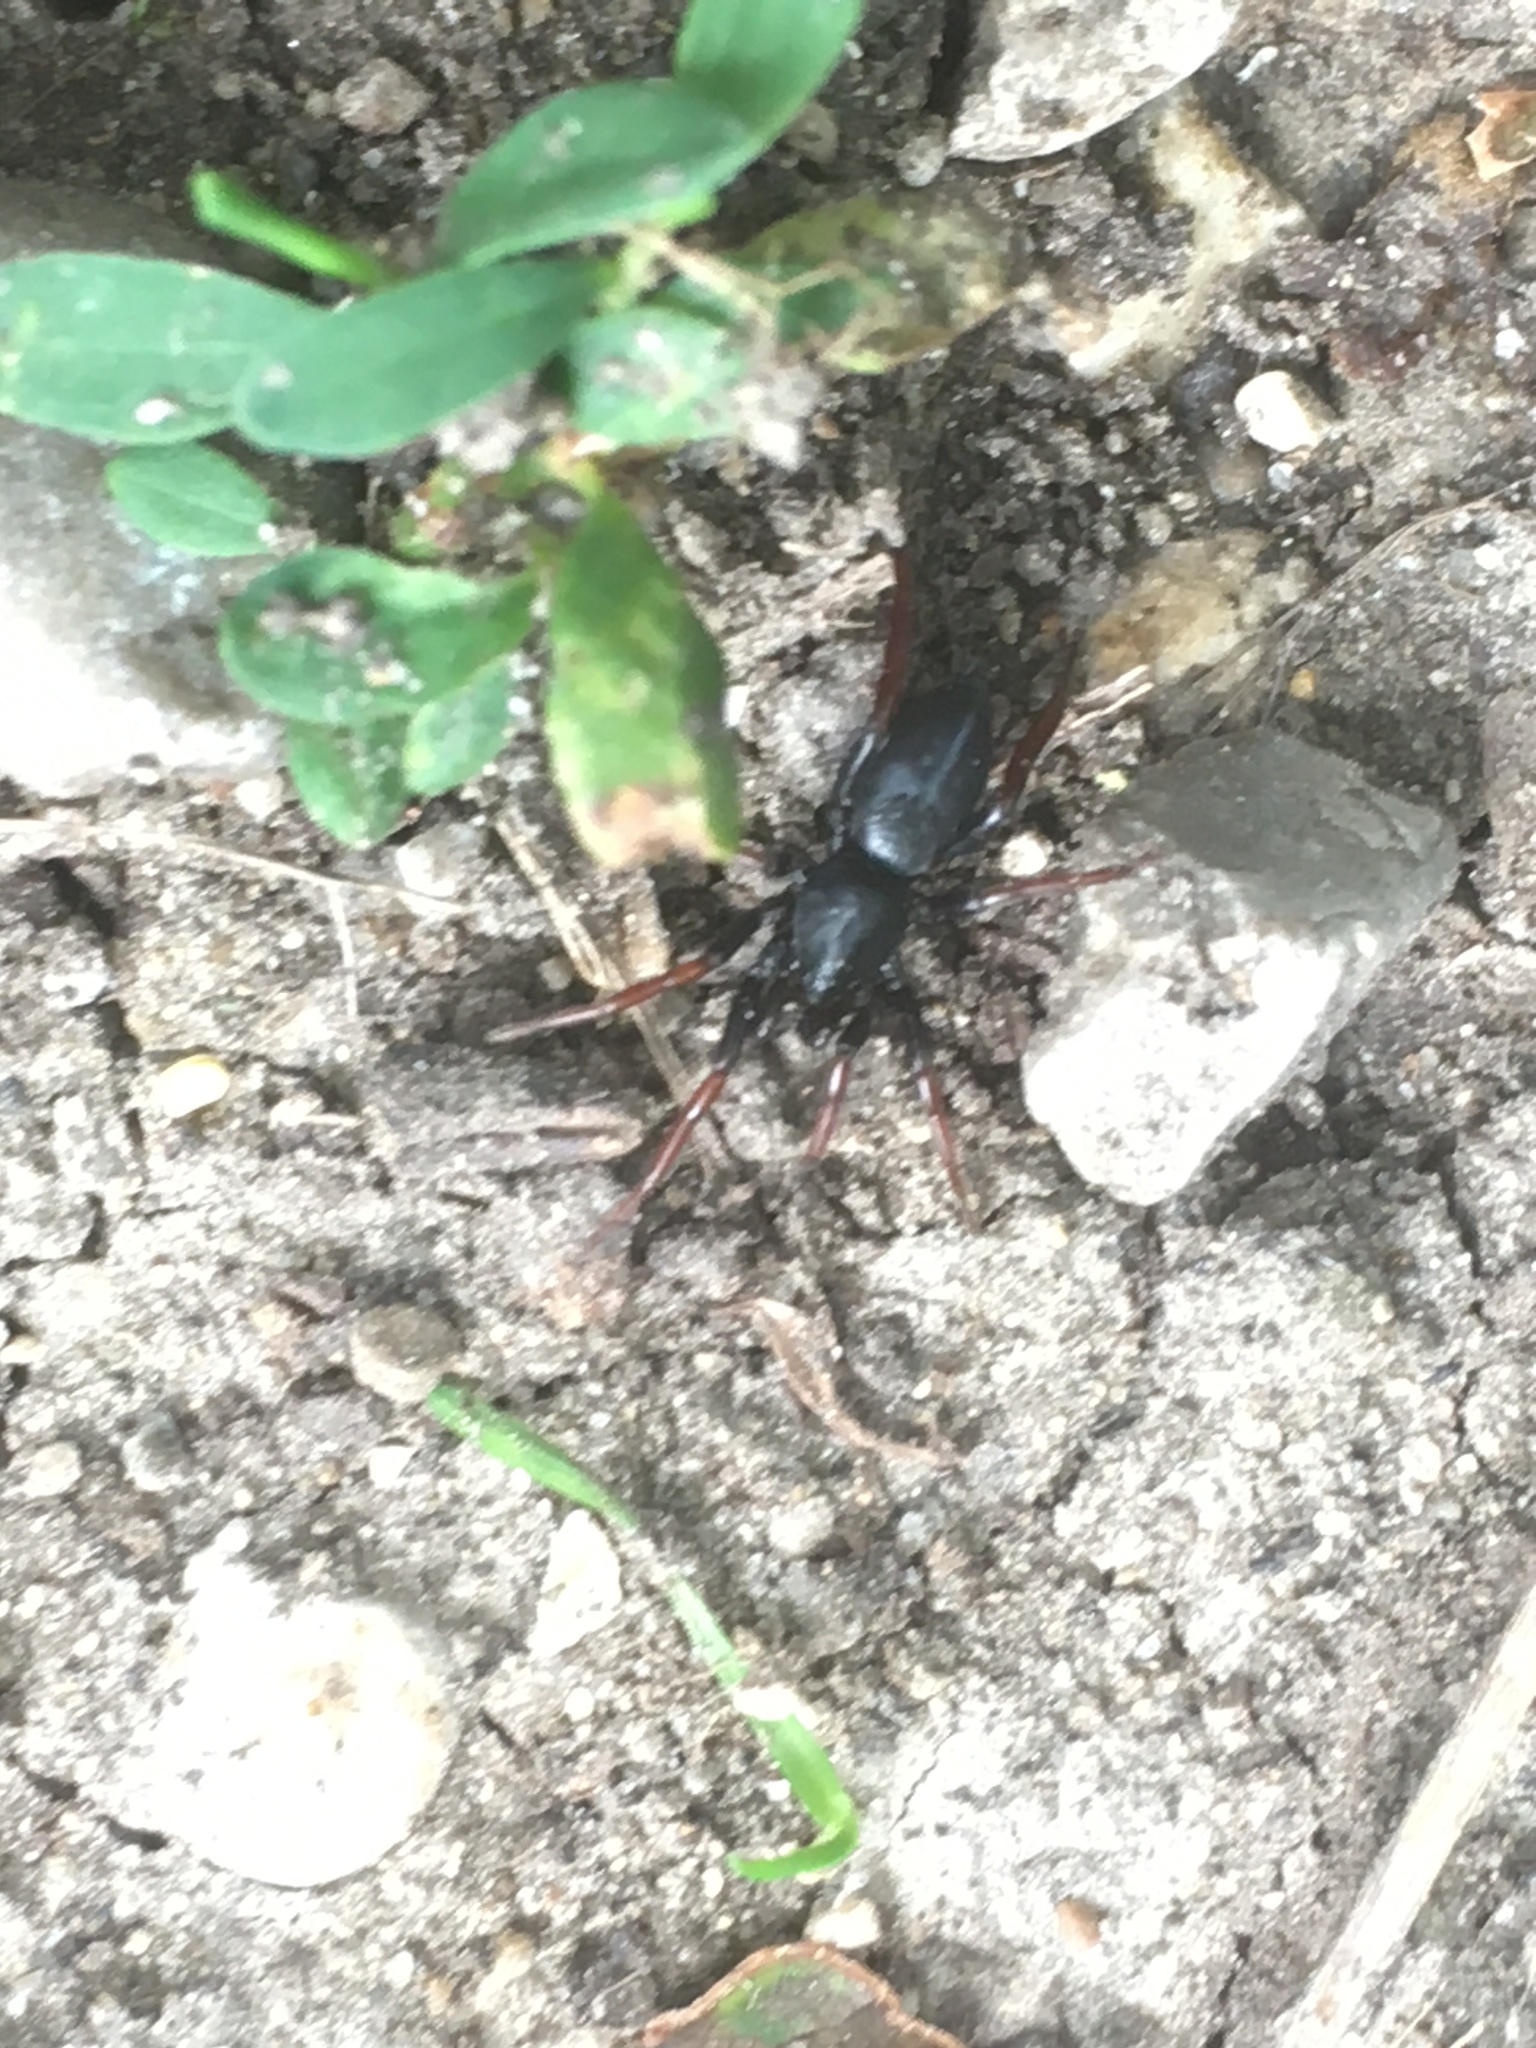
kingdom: Animalia
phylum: Arthropoda
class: Arachnida
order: Araneae
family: Gnaphosidae
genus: Trachyzelotes
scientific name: Trachyzelotes pedestris
